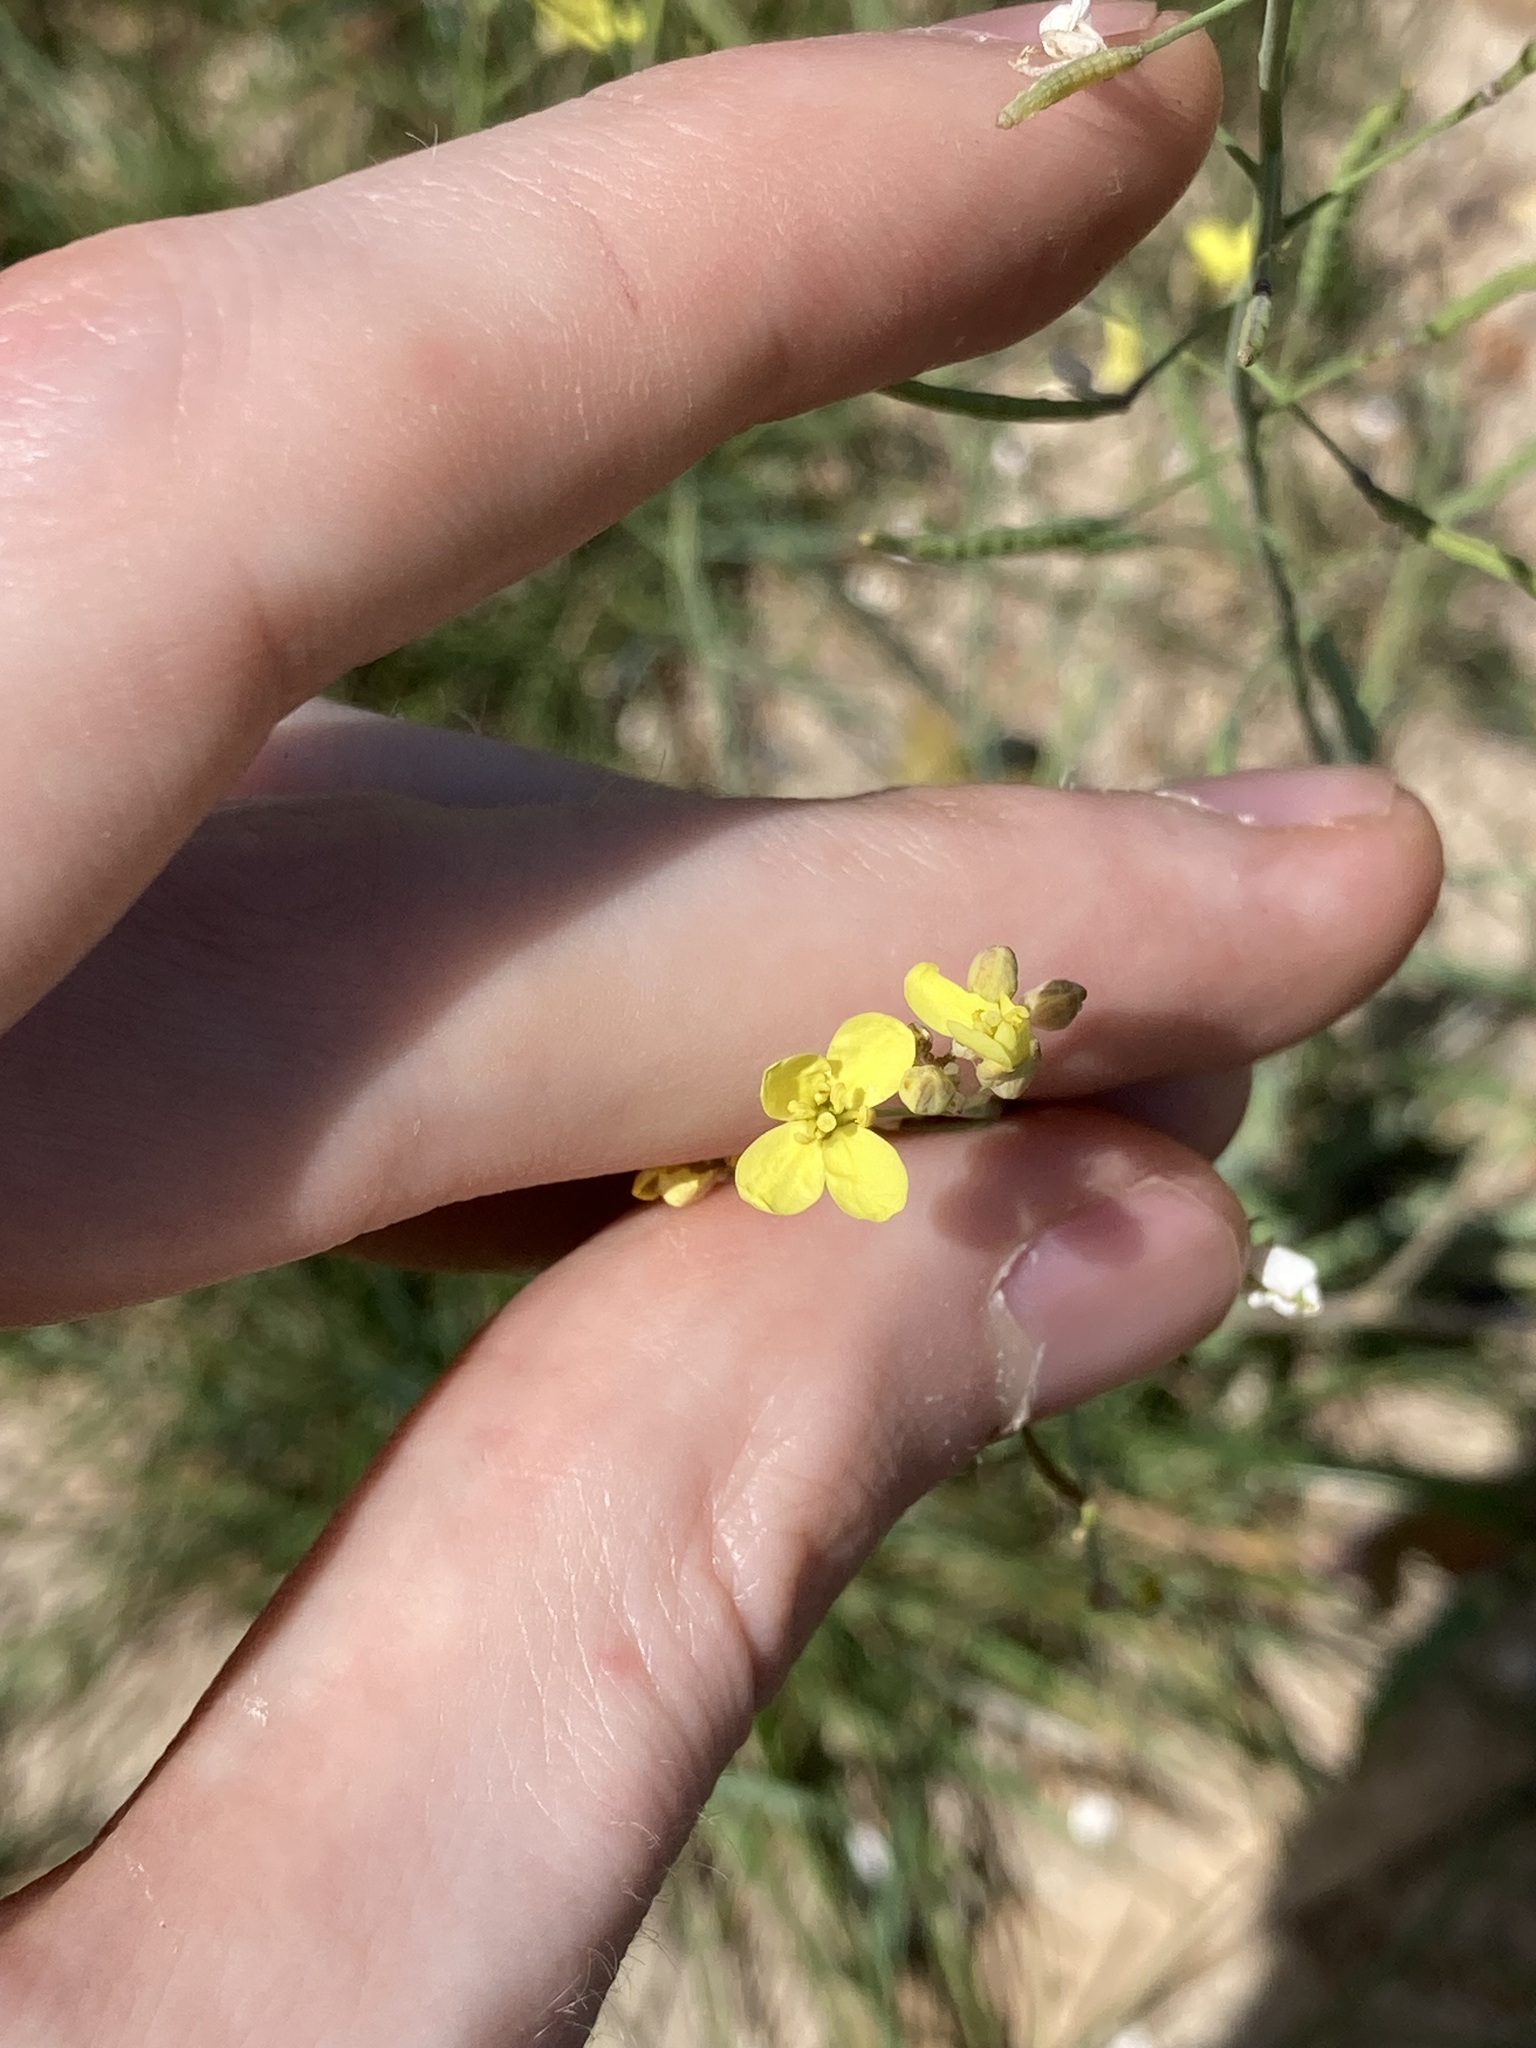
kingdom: Plantae
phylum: Tracheophyta
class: Magnoliopsida
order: Brassicales
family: Brassicaceae
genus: Brassica
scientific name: Brassica fruticulosa
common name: Twiggy turnip
